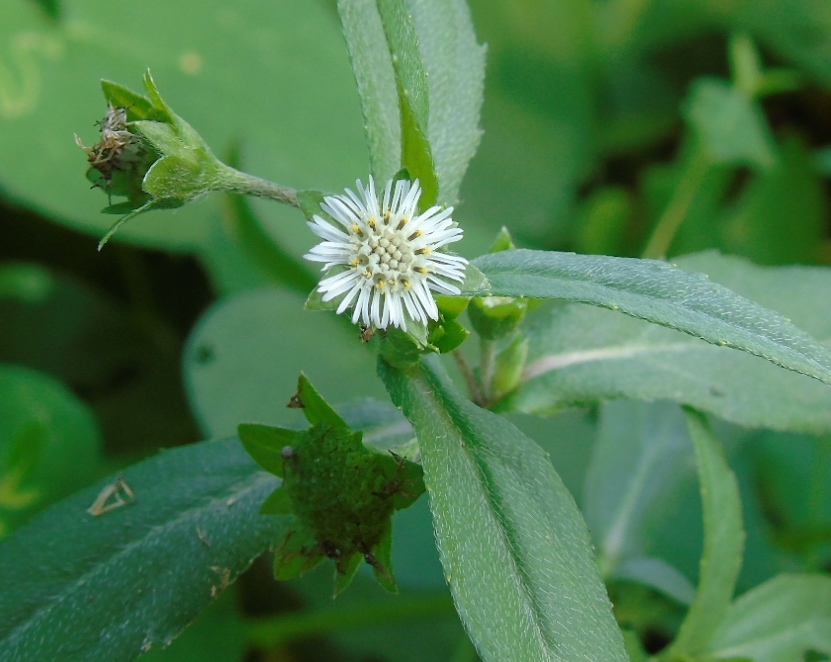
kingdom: Plantae
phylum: Tracheophyta
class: Magnoliopsida
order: Asterales
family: Asteraceae
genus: Eclipta
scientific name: Eclipta prostrata
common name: False daisy
